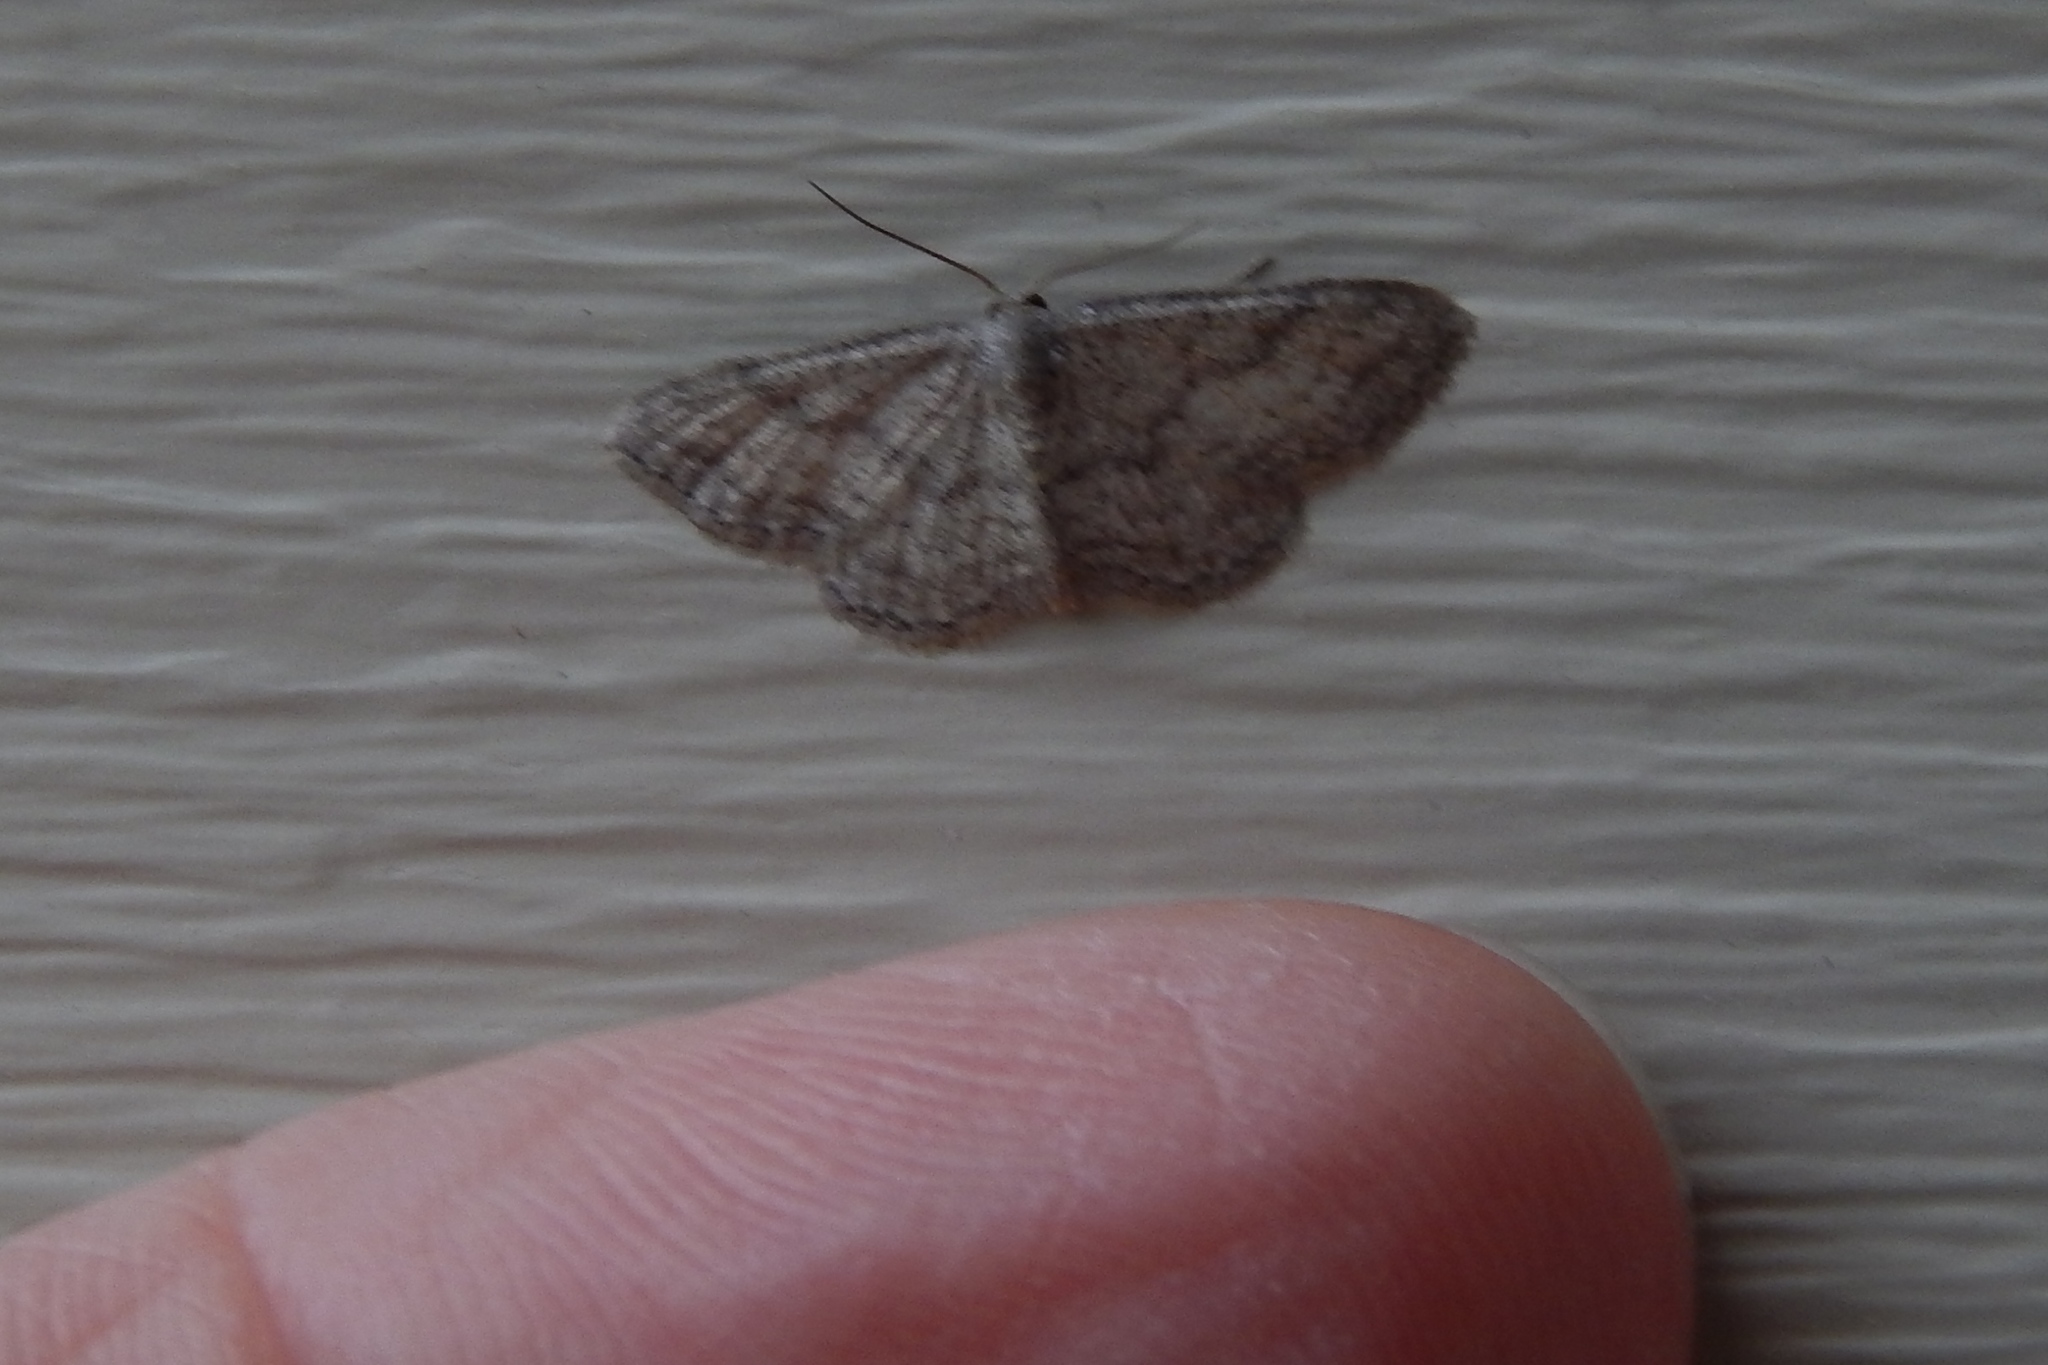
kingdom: Animalia
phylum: Arthropoda
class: Insecta
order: Lepidoptera
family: Geometridae
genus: Lobocleta
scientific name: Lobocleta ossularia
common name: Drab brown wave
